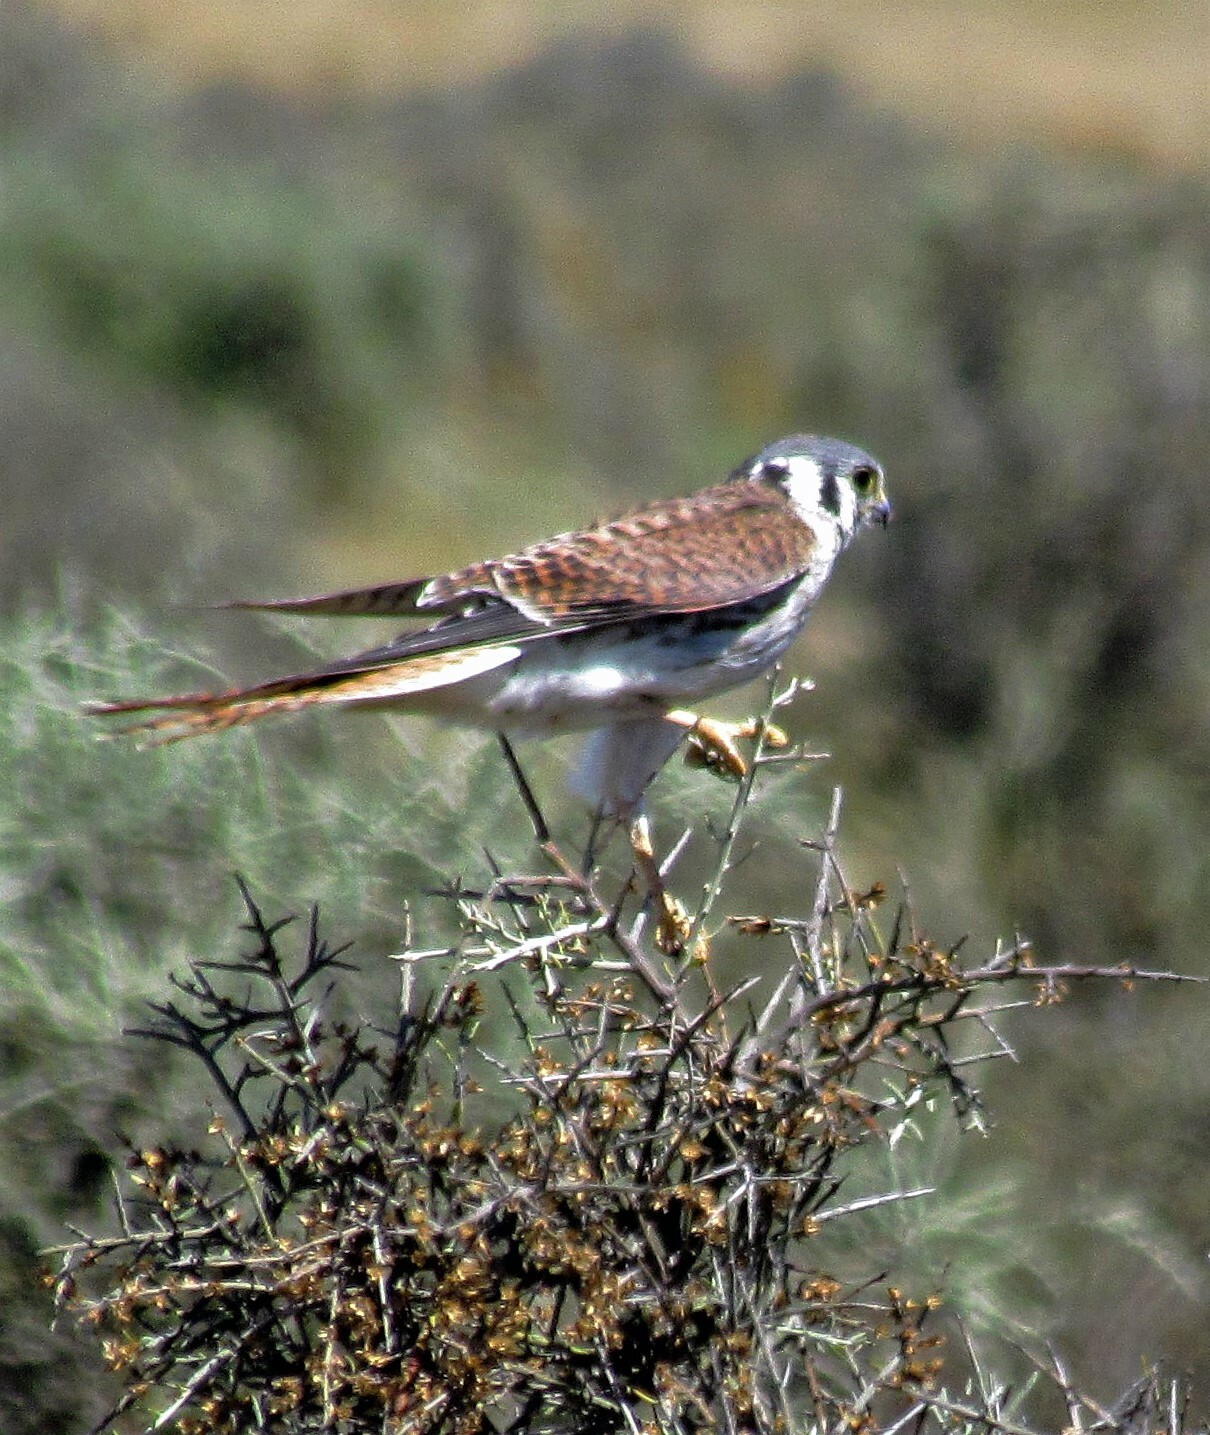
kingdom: Animalia
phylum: Chordata
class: Aves
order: Falconiformes
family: Falconidae
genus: Falco
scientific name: Falco sparverius
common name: American kestrel
